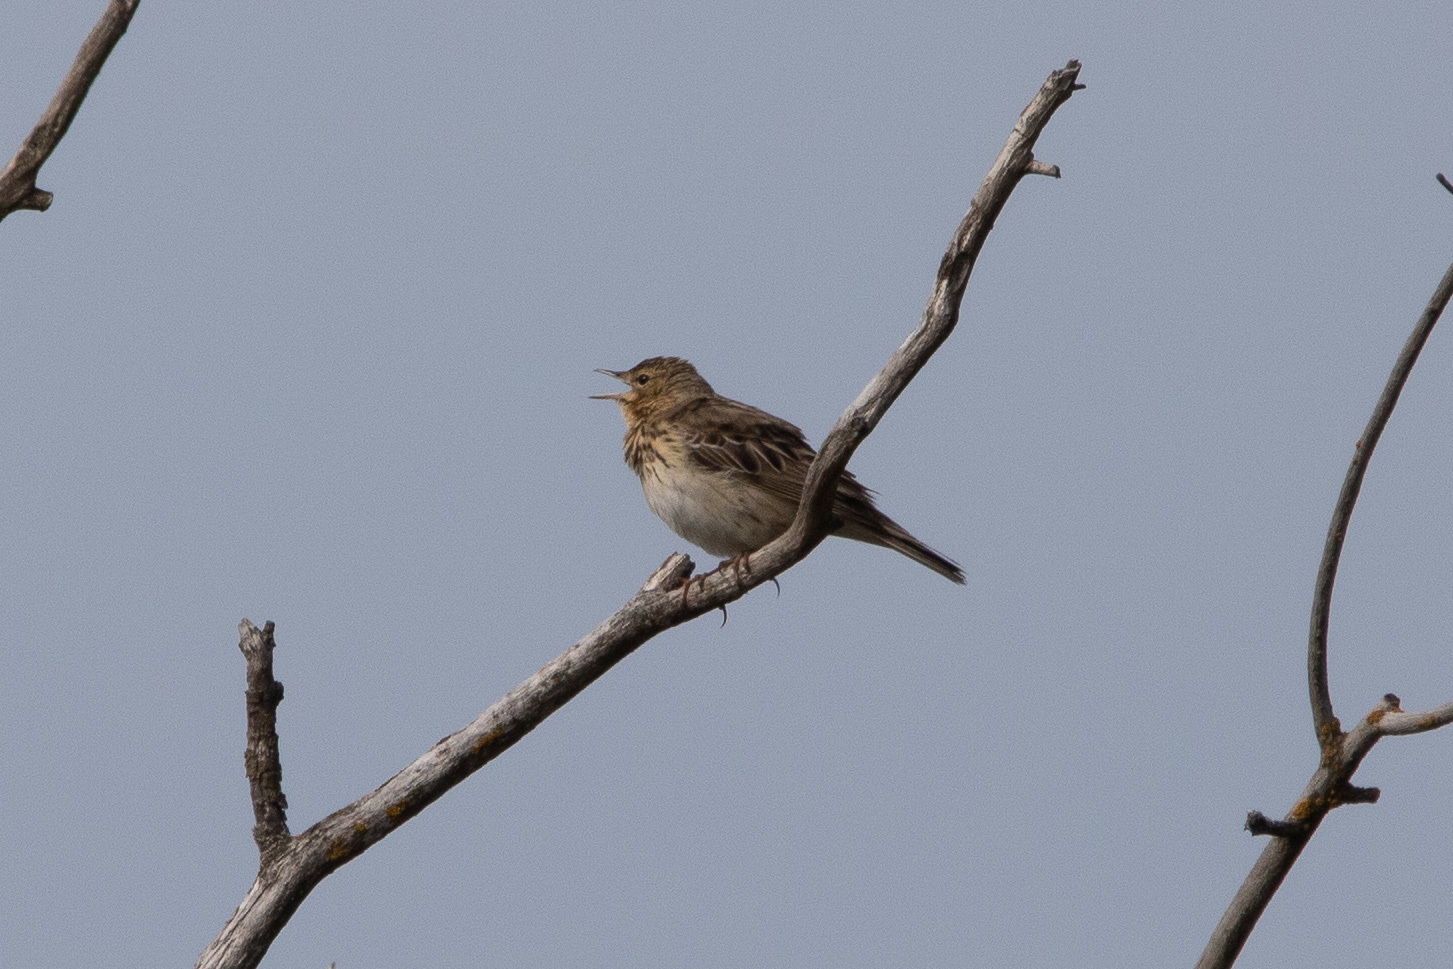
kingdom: Animalia
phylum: Chordata
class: Aves
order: Passeriformes
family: Motacillidae
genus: Anthus
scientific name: Anthus trivialis
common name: Tree pipit
